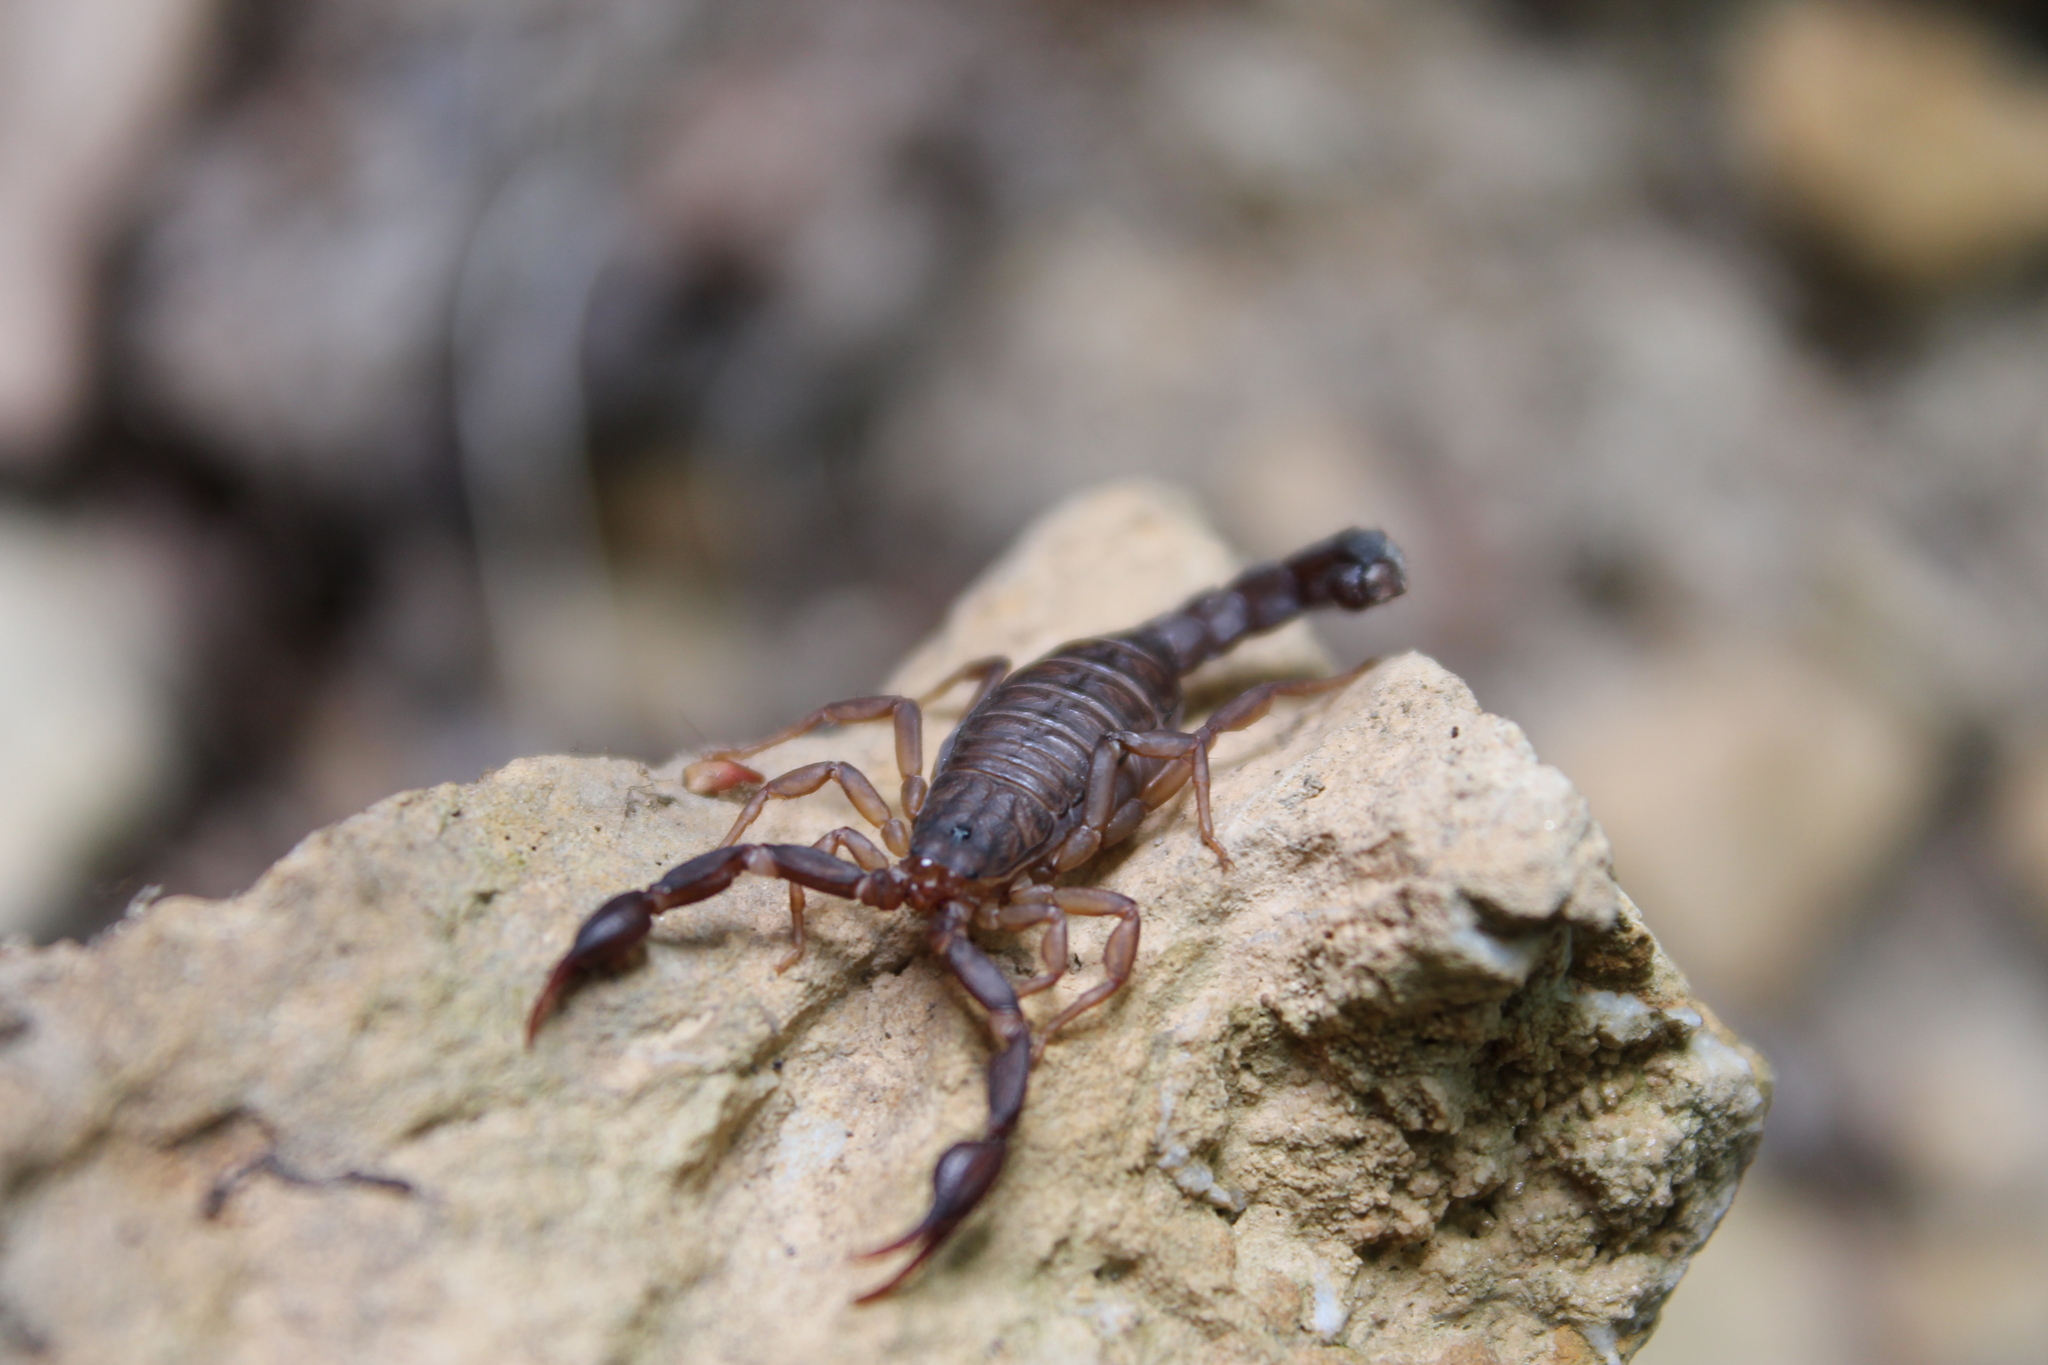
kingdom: Animalia
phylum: Arthropoda
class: Arachnida
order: Scorpiones
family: Vaejovidae
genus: Vaejovis
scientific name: Vaejovis carolinianus
